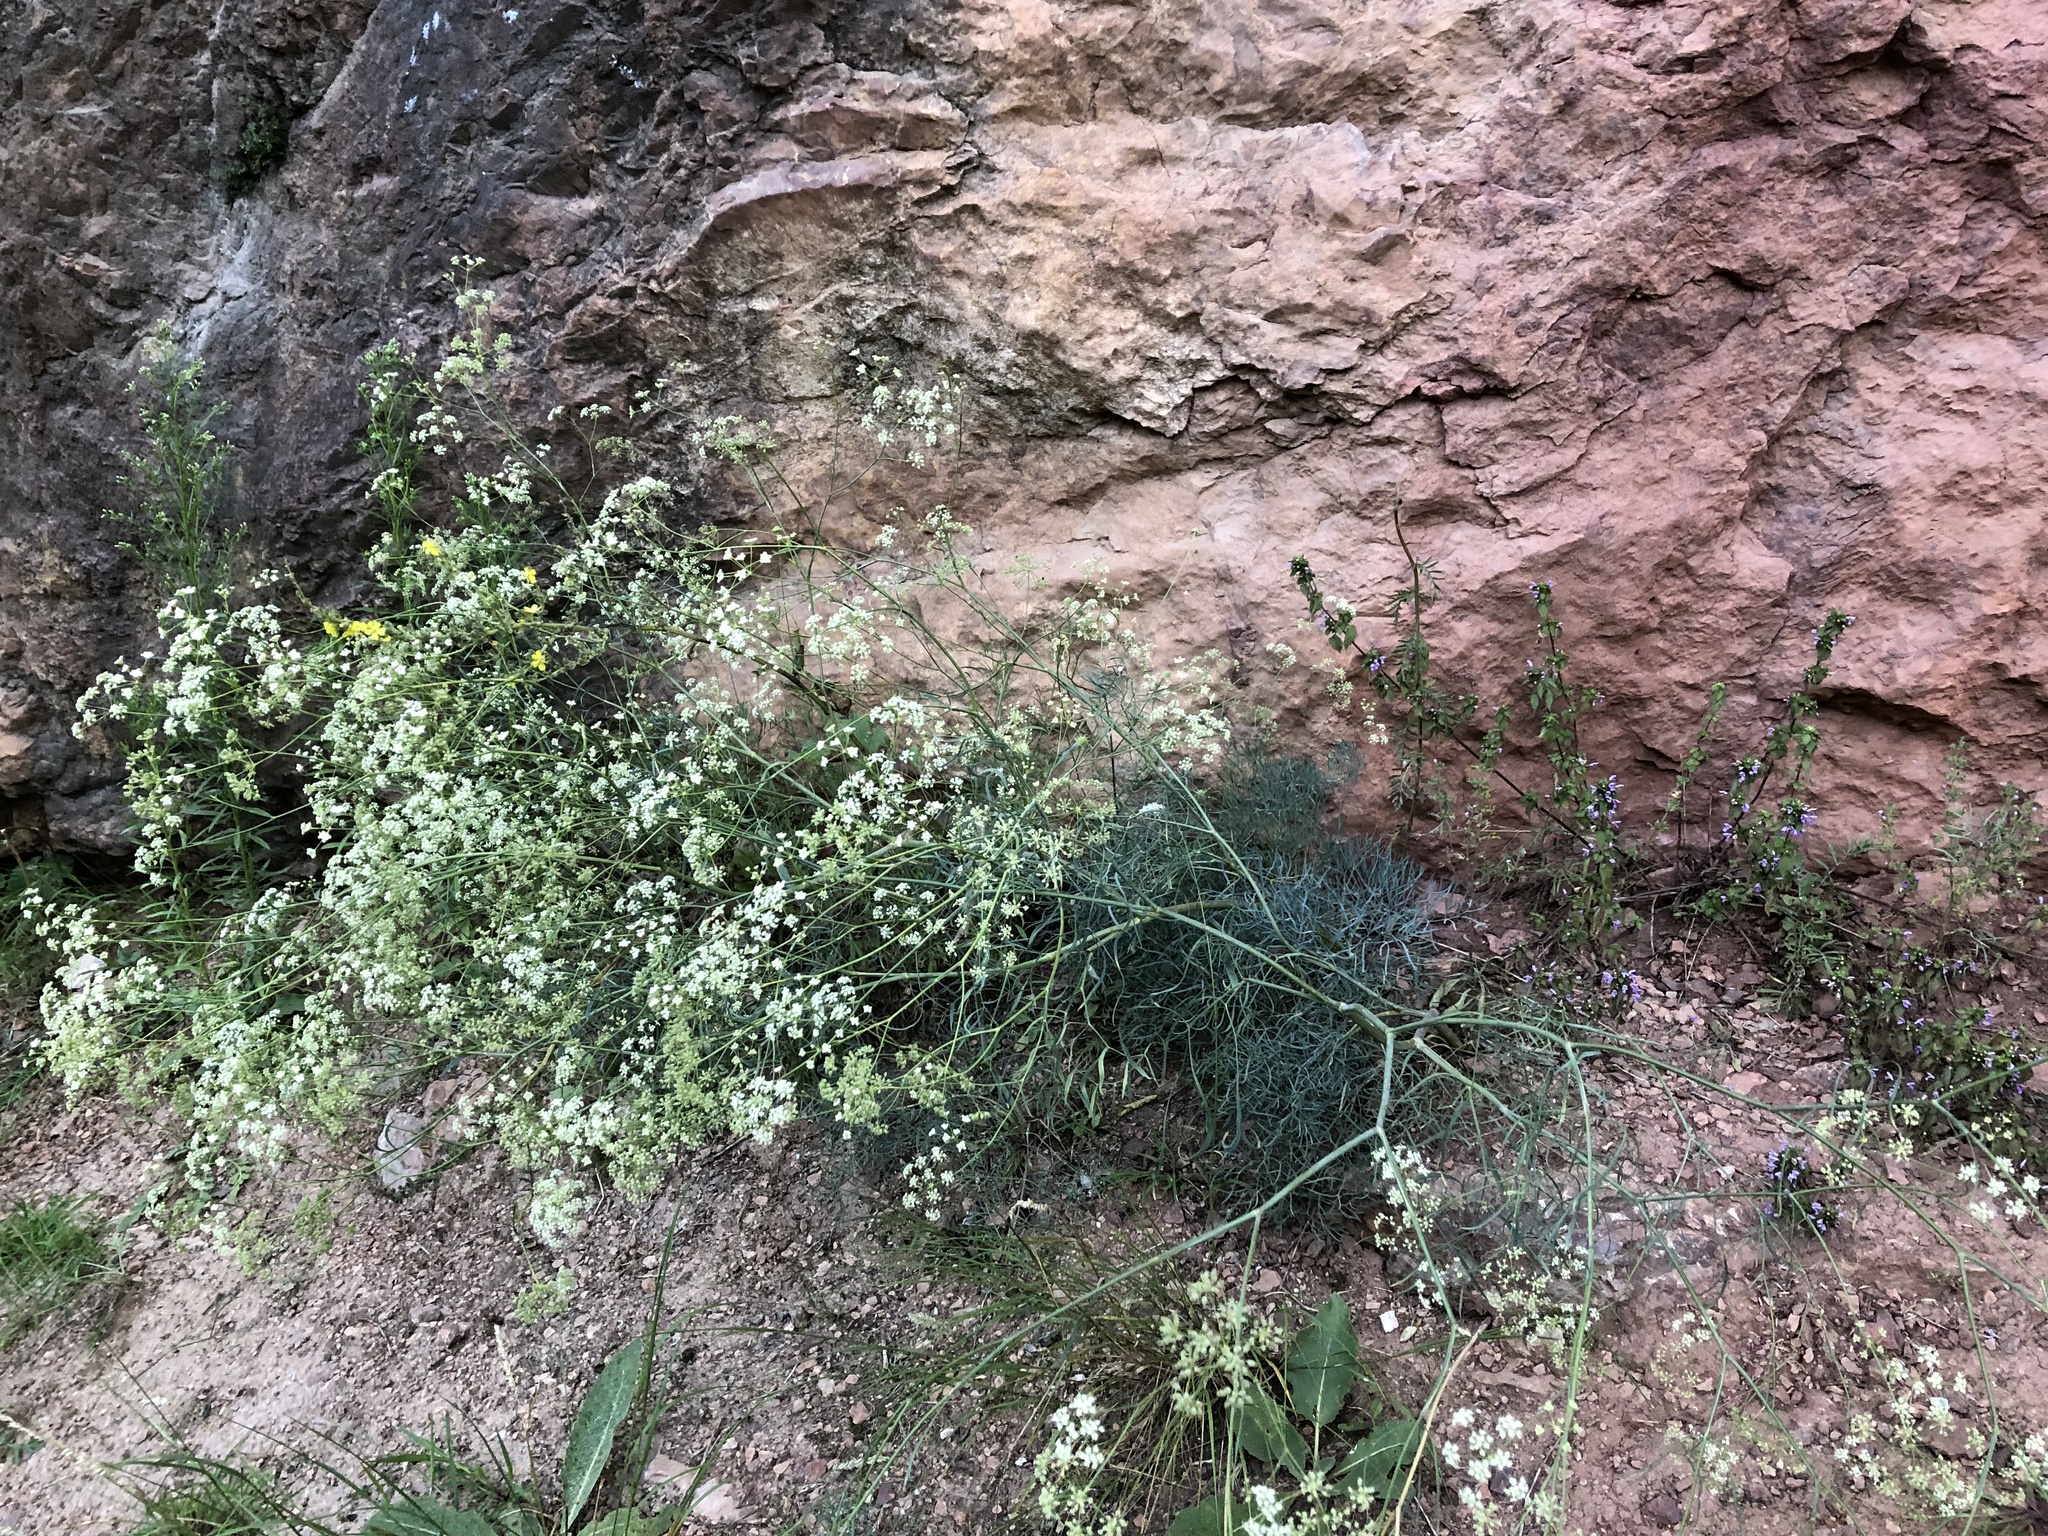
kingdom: Plantae
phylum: Tracheophyta
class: Magnoliopsida
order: Apiales
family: Apiaceae
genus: Seseli
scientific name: Seseli osseum
